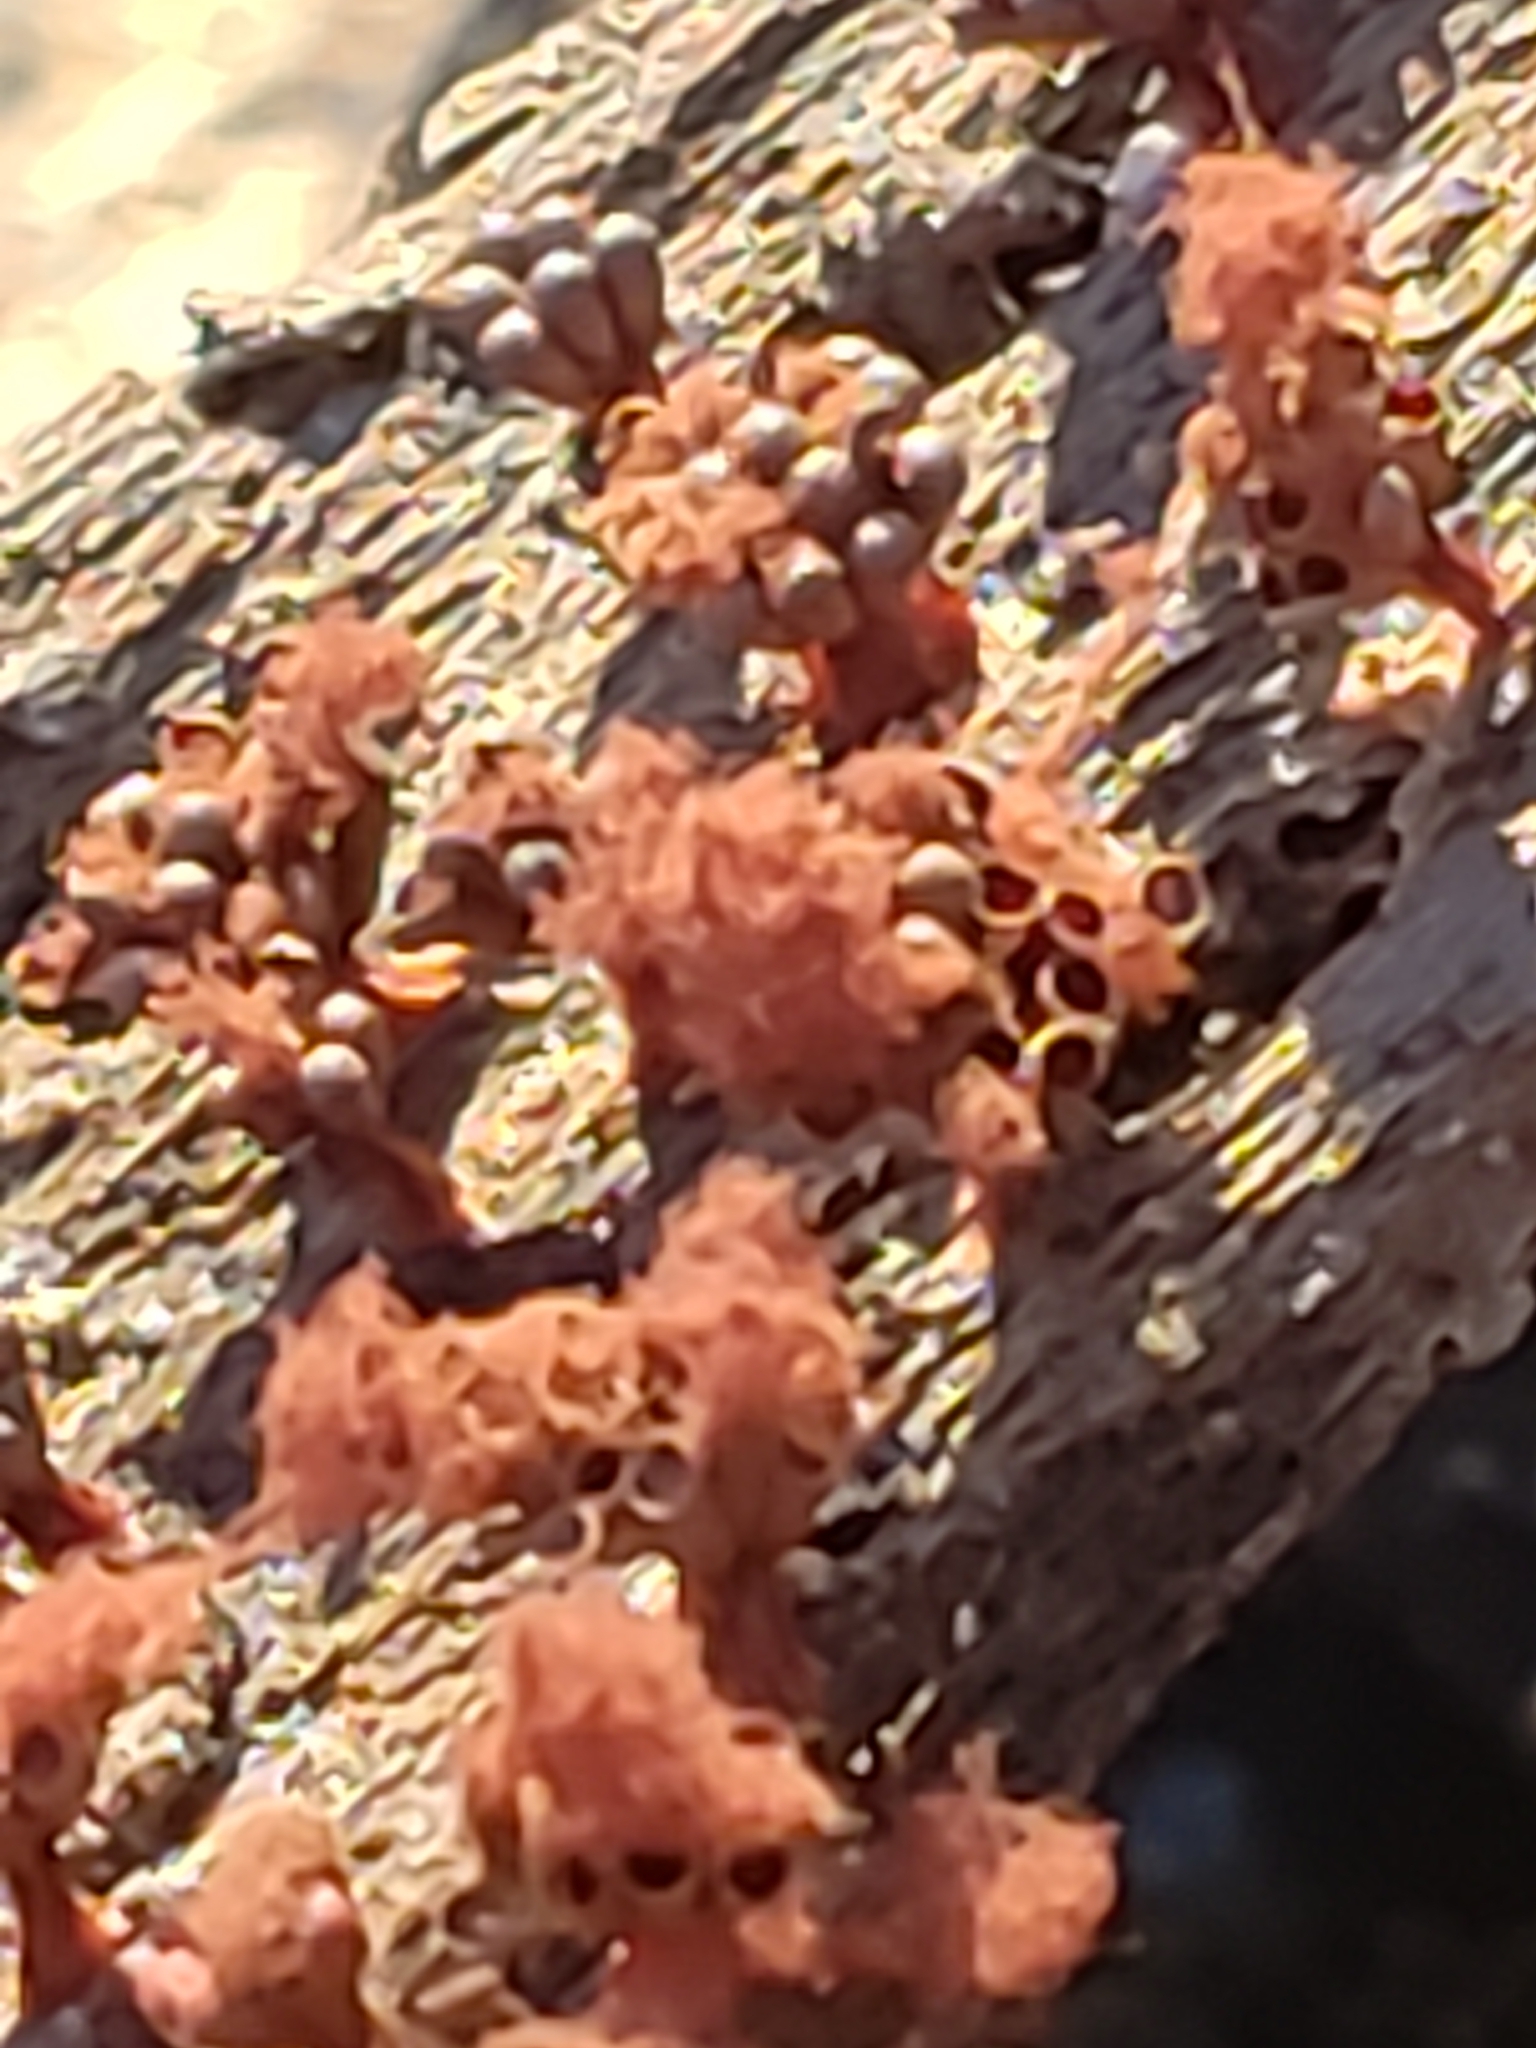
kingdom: Protozoa
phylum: Mycetozoa
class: Myxomycetes
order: Trichiales
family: Trichiaceae
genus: Metatrichia
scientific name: Metatrichia vesparia
